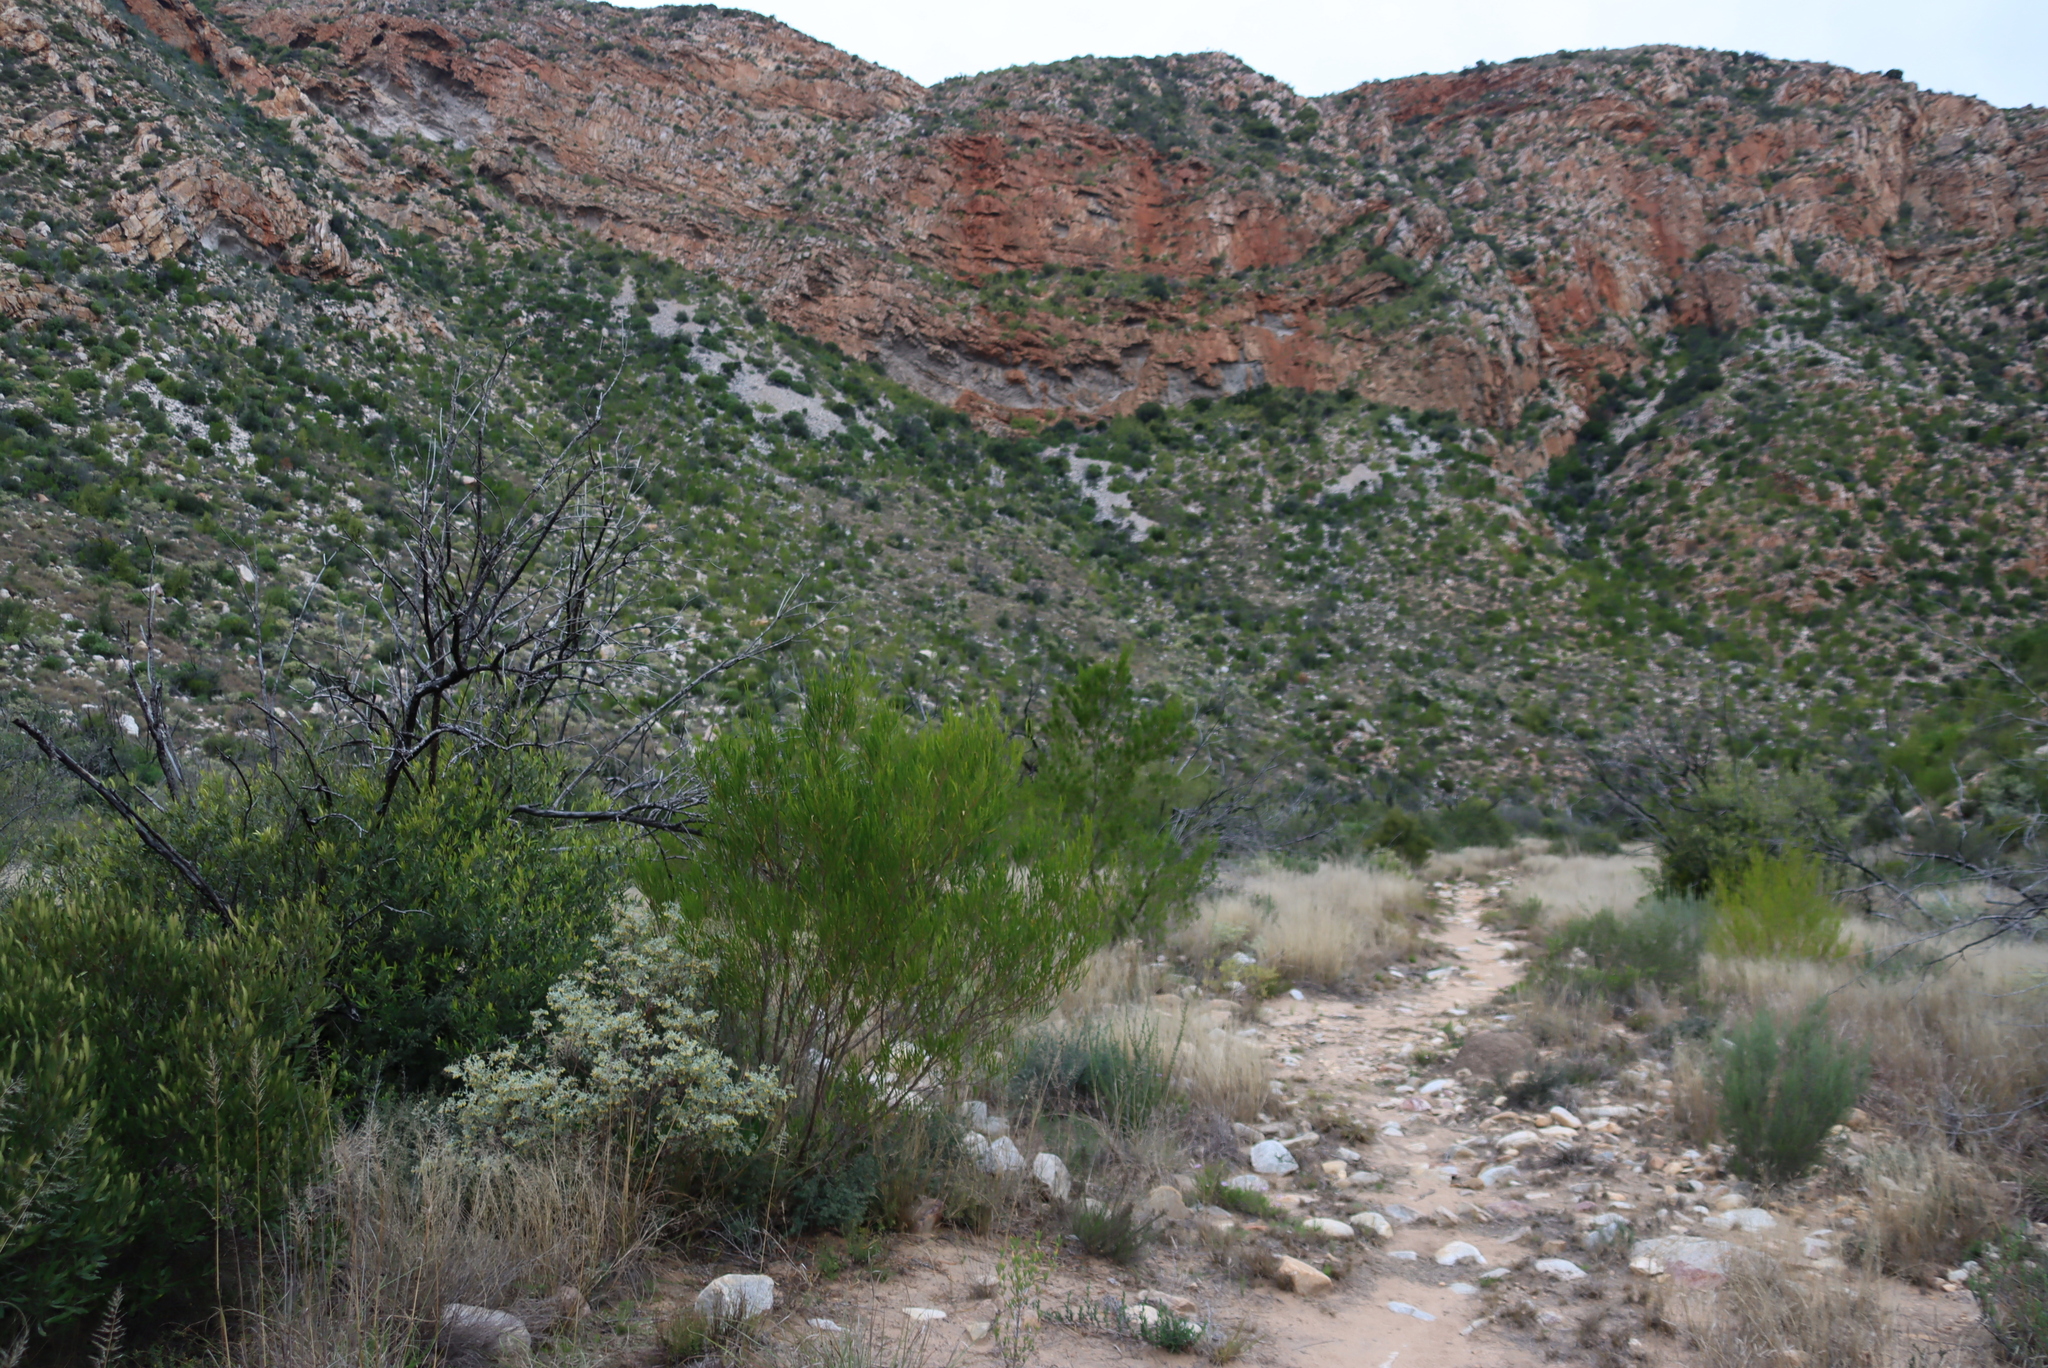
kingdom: Plantae
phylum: Tracheophyta
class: Magnoliopsida
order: Sapindales
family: Sapindaceae
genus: Dodonaea
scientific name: Dodonaea viscosa
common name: Hopbush
